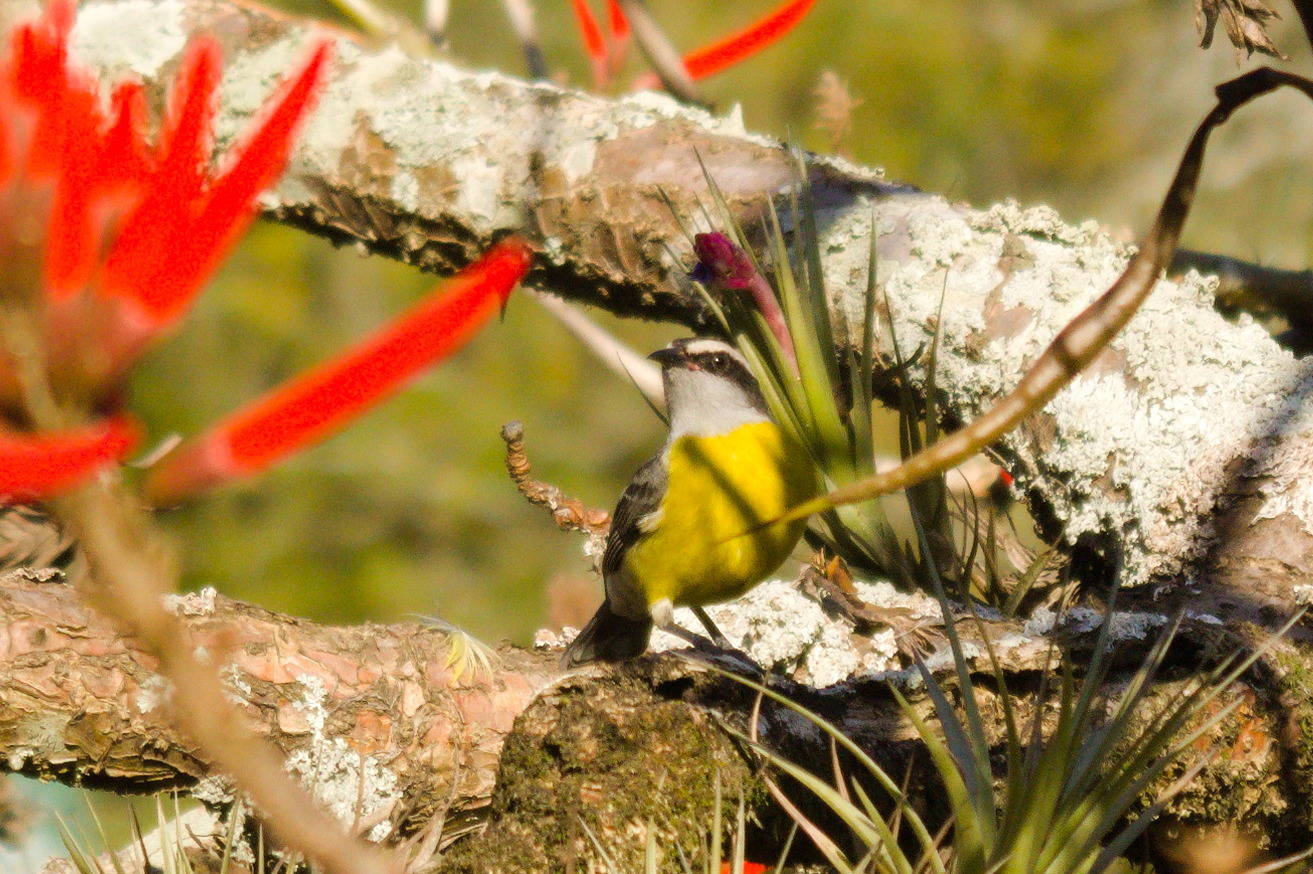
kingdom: Animalia
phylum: Chordata
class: Aves
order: Passeriformes
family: Thraupidae
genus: Coereba
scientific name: Coereba flaveola
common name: Bananaquit
